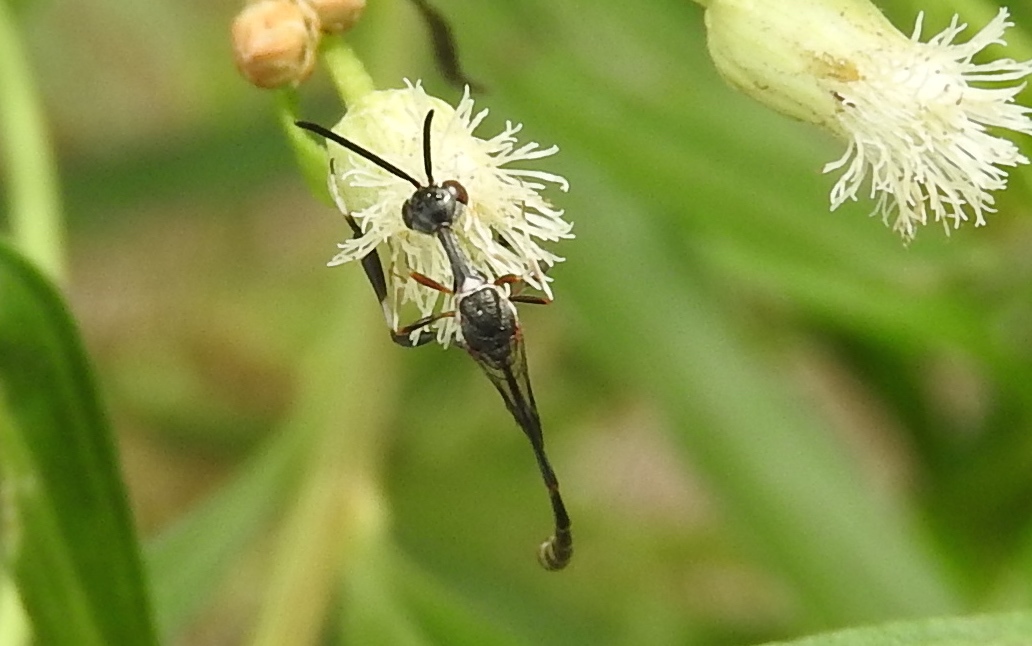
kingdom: Animalia
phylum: Arthropoda
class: Insecta
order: Hymenoptera
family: Gasteruptiidae
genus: Gasteruption
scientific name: Gasteruption
